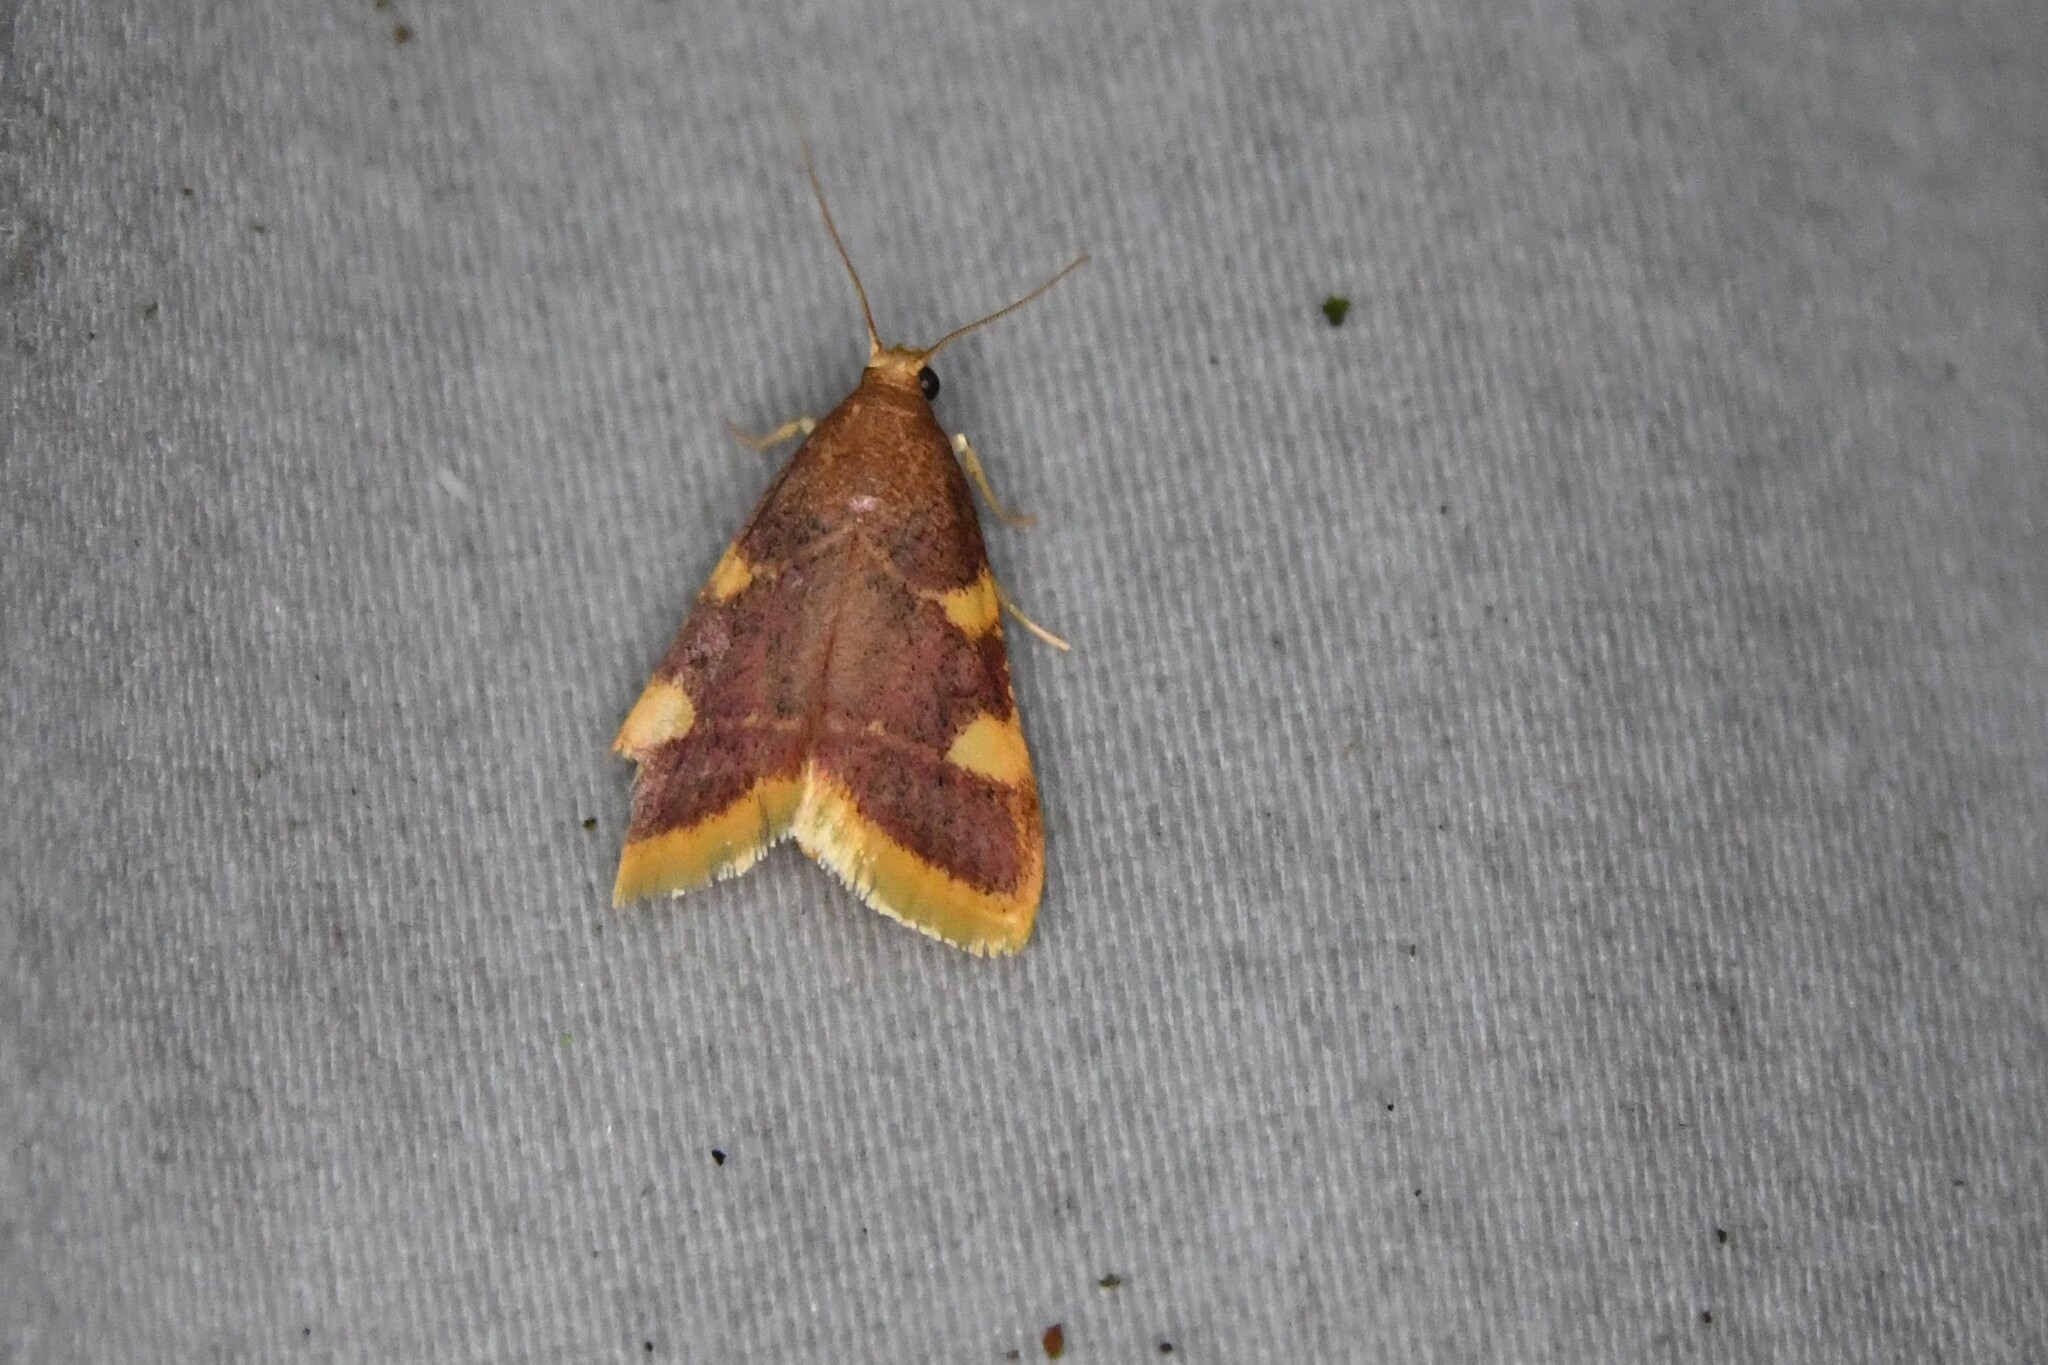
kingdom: Animalia
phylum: Arthropoda
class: Insecta
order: Lepidoptera
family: Pyralidae
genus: Hypsopygia
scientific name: Hypsopygia costalis
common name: Gold triangle
